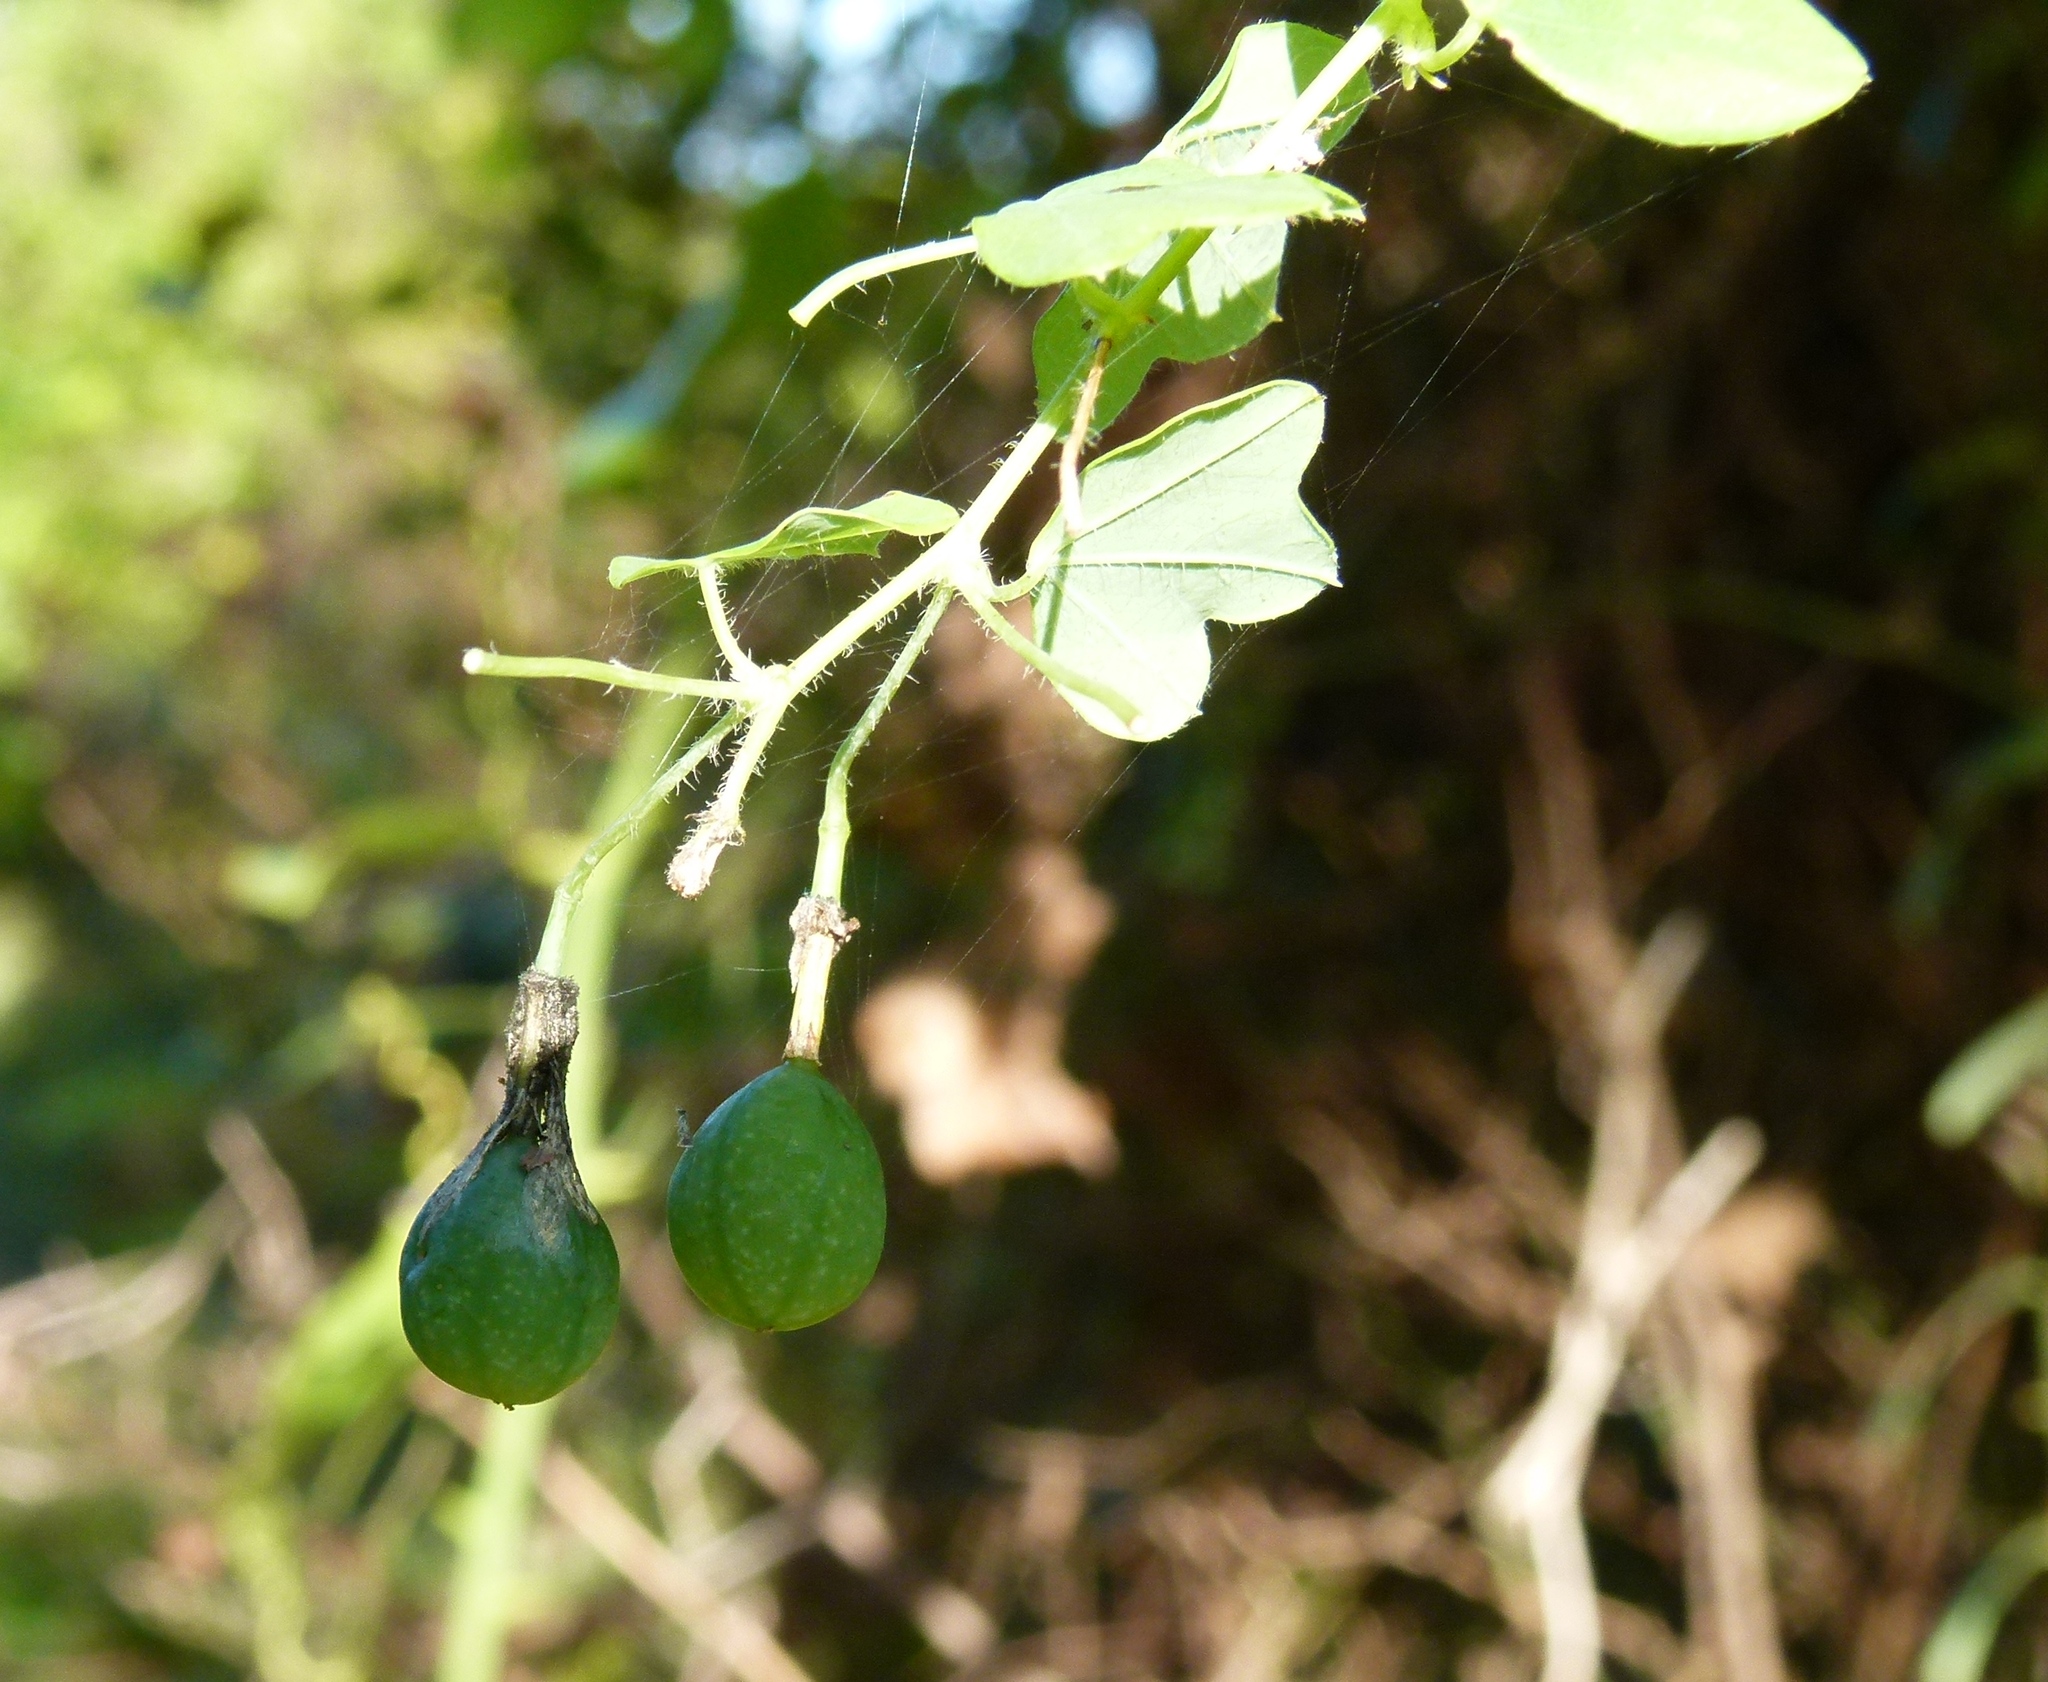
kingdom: Plantae
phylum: Tracheophyta
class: Magnoliopsida
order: Malpighiales
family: Passifloraceae
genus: Passiflora
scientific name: Passiflora lutea
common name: Yellow passionflower
